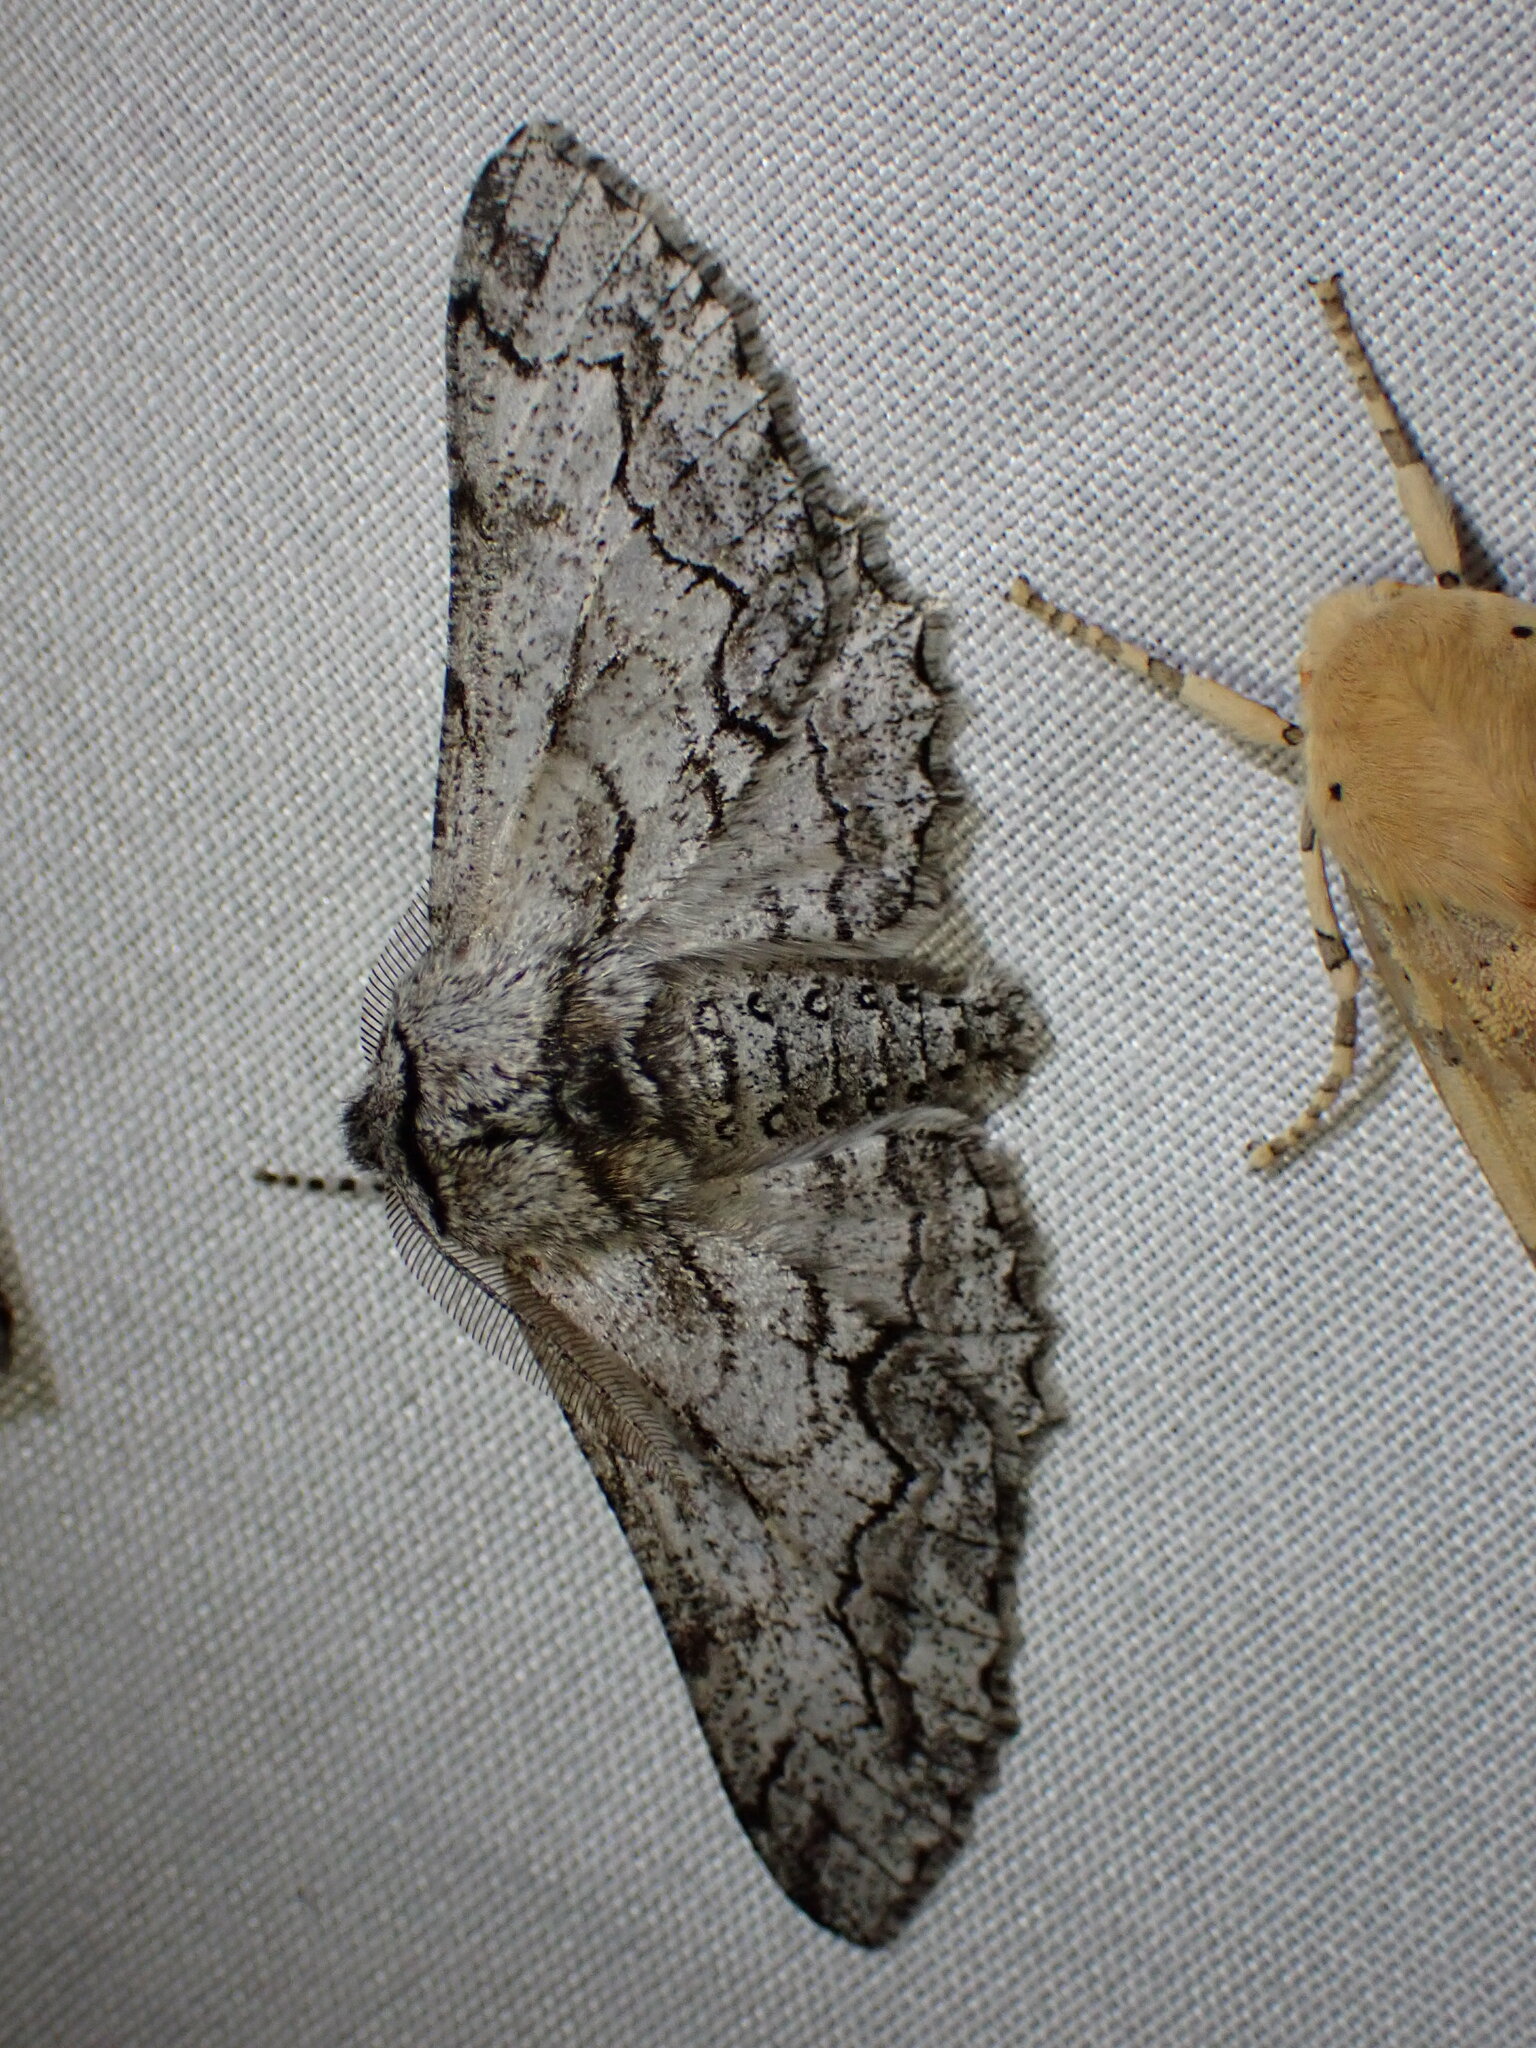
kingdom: Animalia
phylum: Arthropoda
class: Insecta
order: Lepidoptera
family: Geometridae
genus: Biston
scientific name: Biston sinuata
